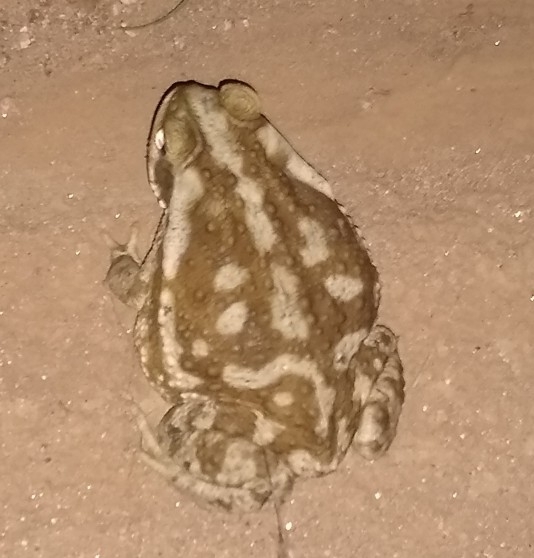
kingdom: Animalia
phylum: Chordata
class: Amphibia
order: Anura
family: Bufonidae
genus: Rhinella
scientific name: Rhinella arenarum
